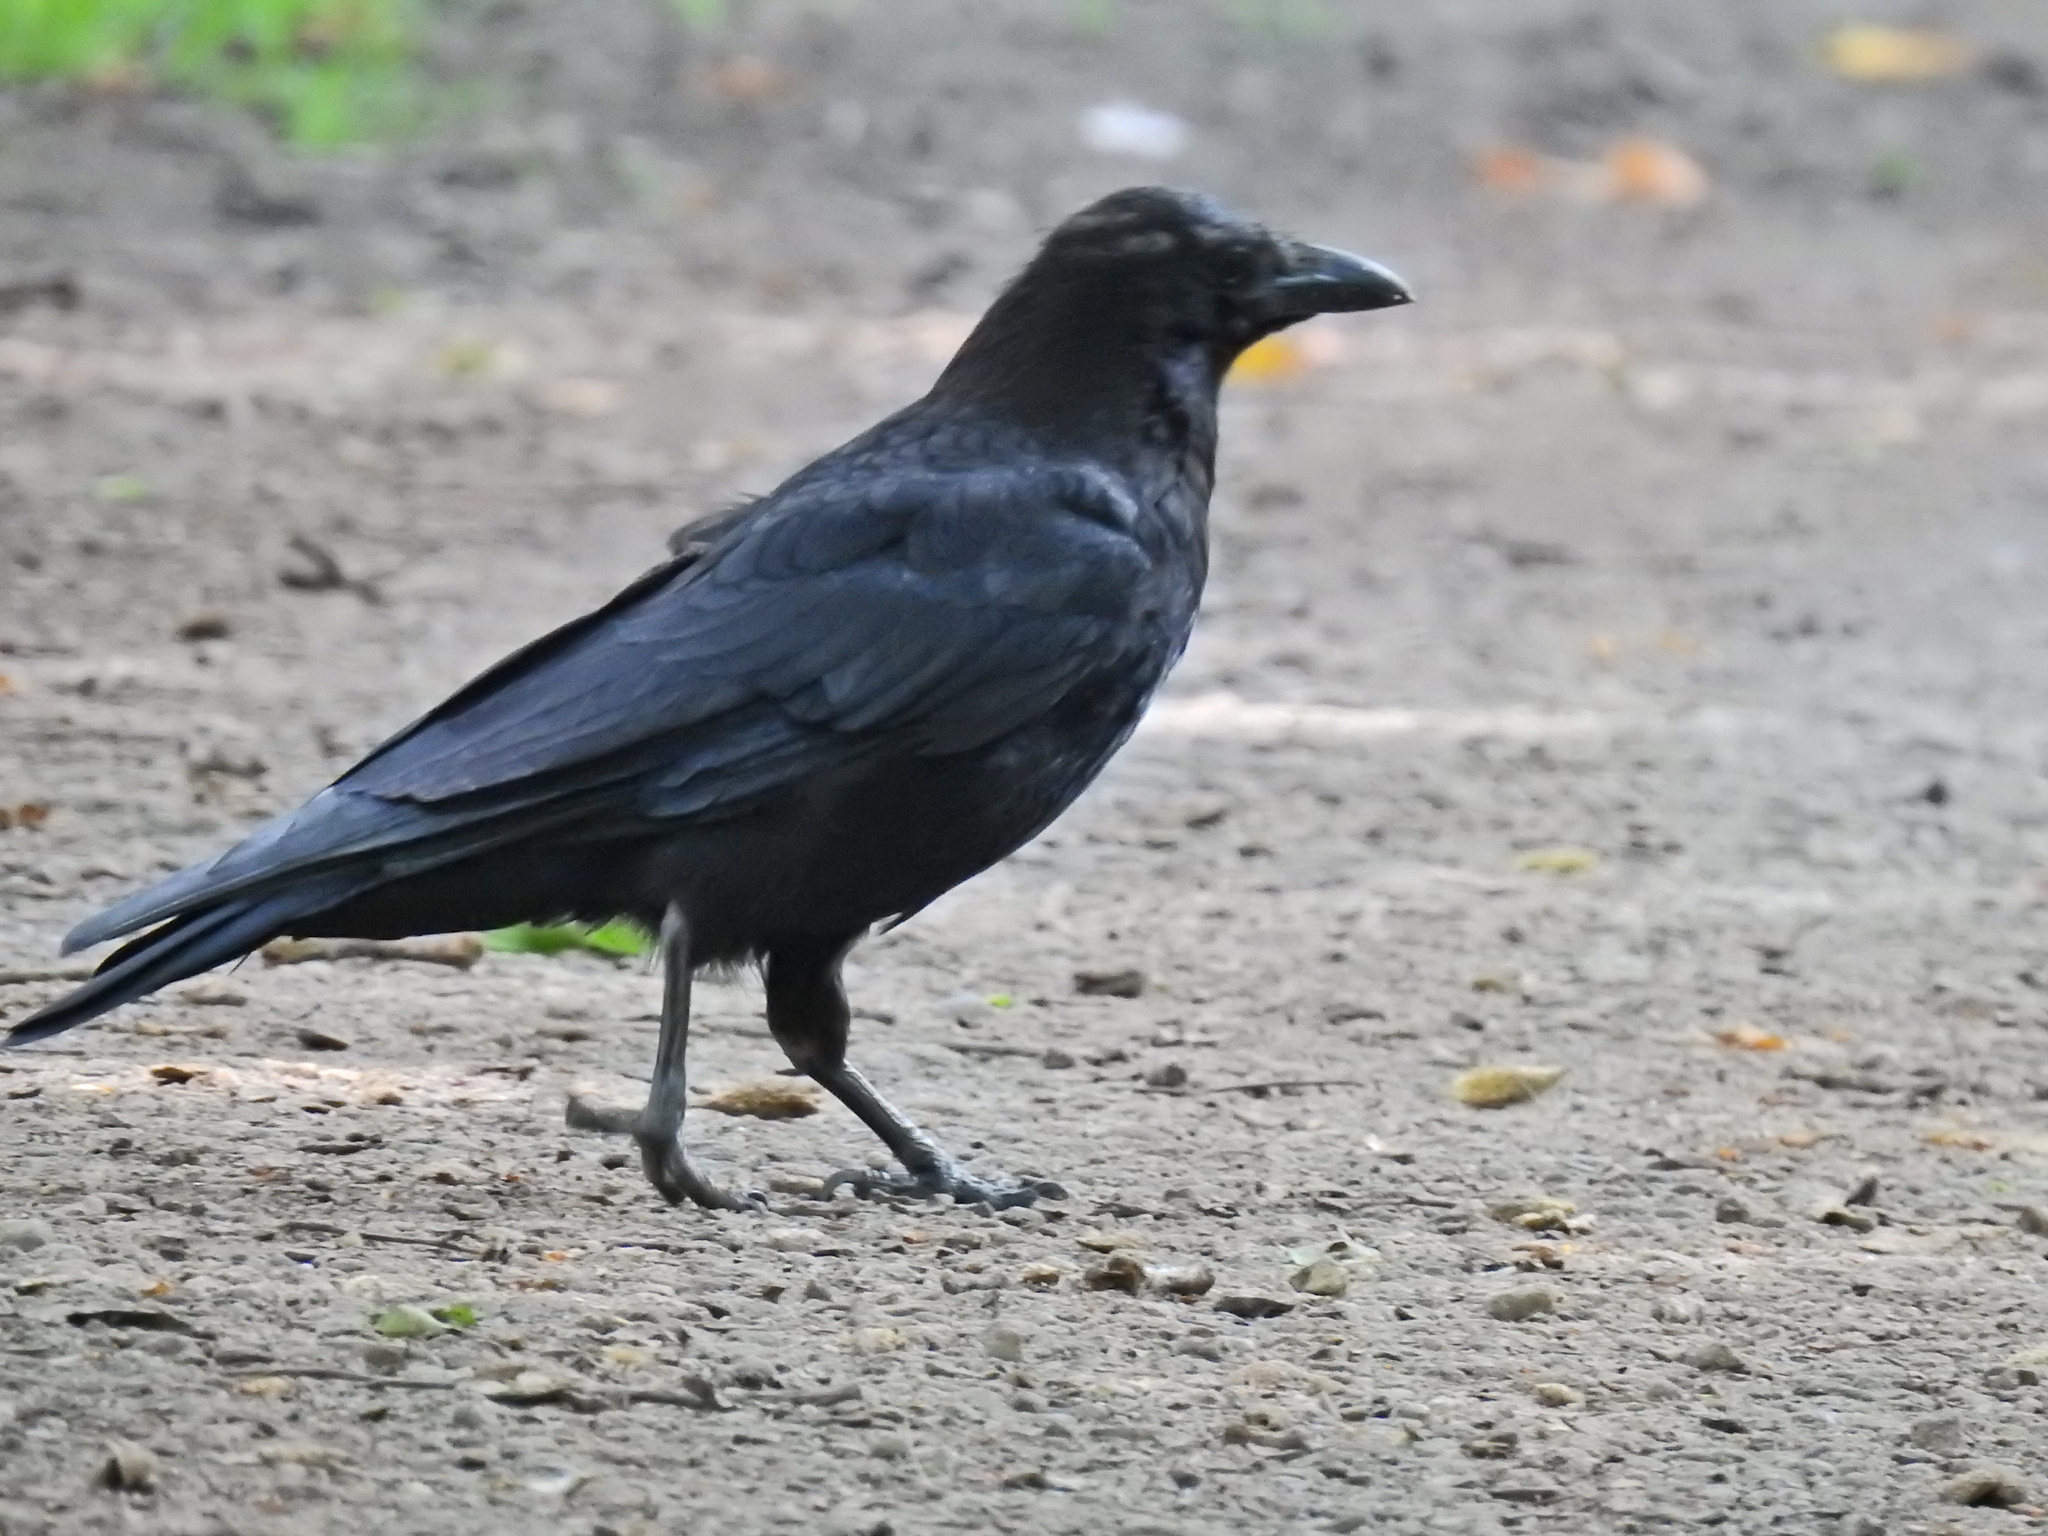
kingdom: Animalia
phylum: Chordata
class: Aves
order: Passeriformes
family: Corvidae
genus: Corvus
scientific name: Corvus corone
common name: Carrion crow
